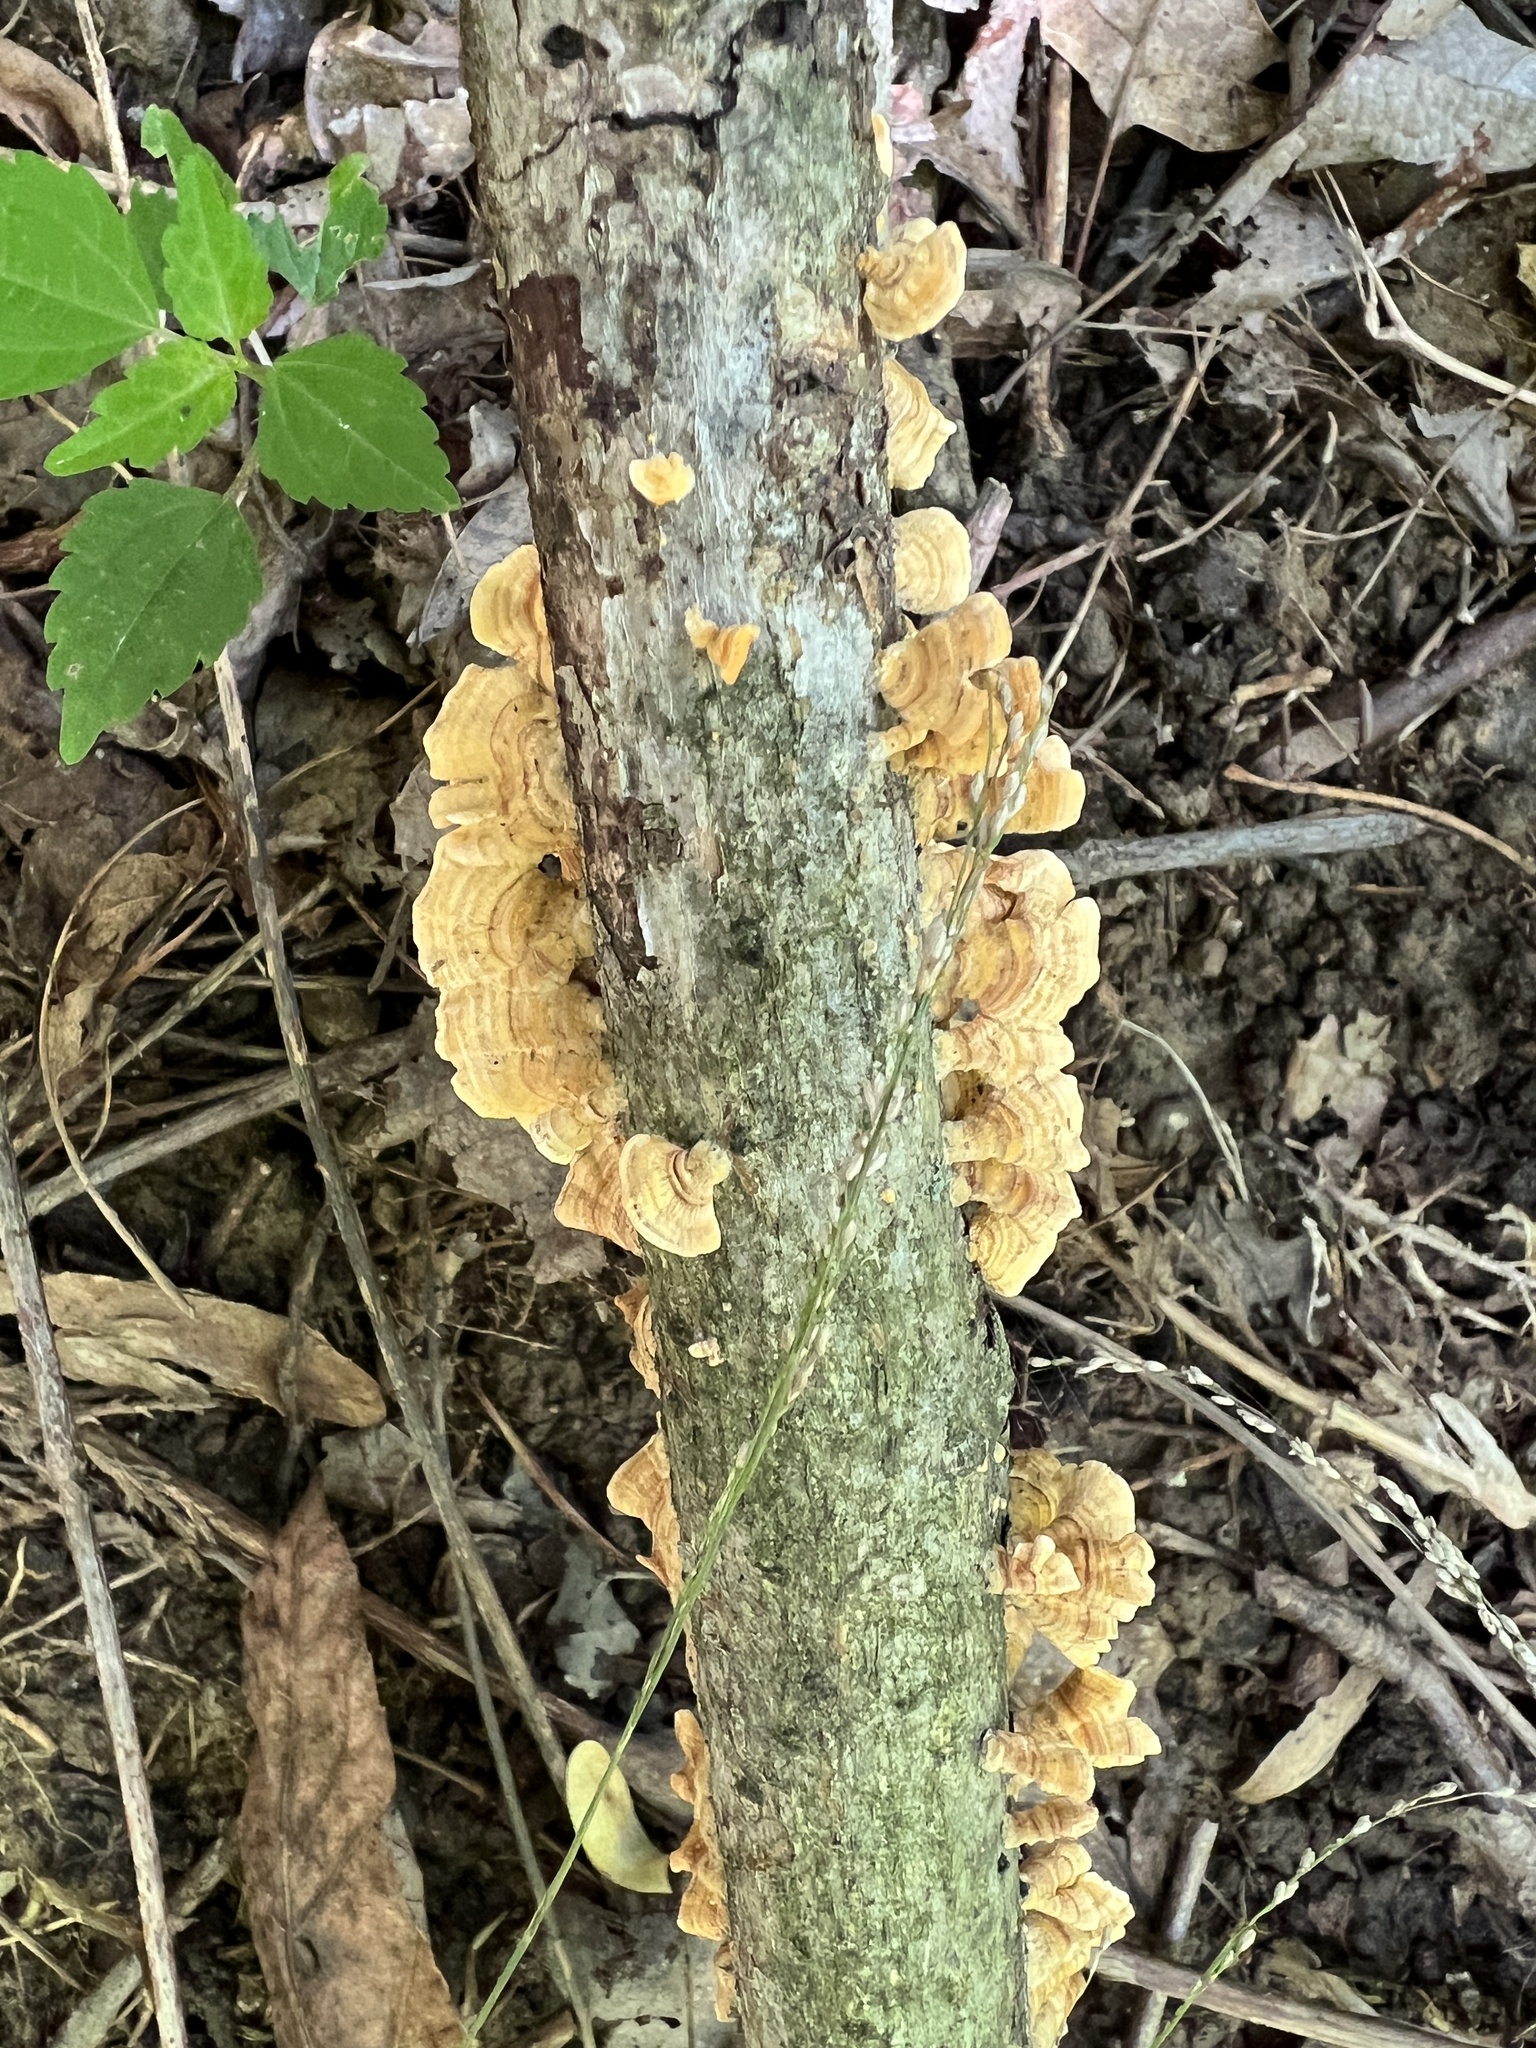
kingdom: Fungi
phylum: Basidiomycota
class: Agaricomycetes
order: Russulales
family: Stereaceae
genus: Stereum
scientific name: Stereum complicatum
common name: Crowded parchment
